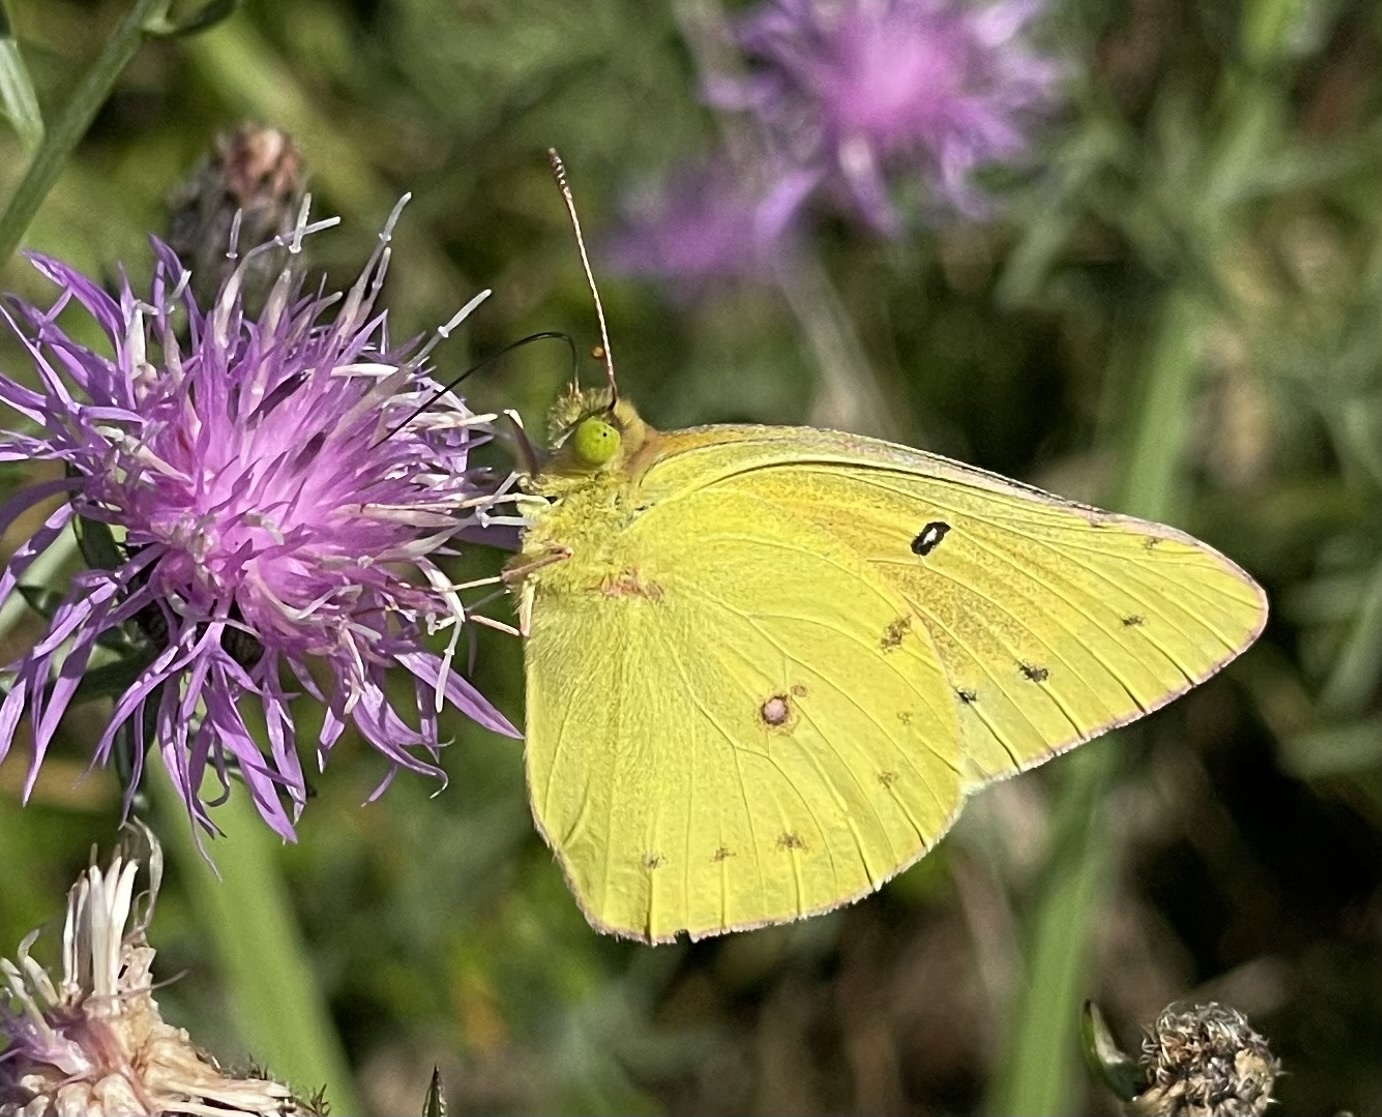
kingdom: Animalia
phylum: Arthropoda
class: Insecta
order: Lepidoptera
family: Pieridae
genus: Colias
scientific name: Colias eurytheme
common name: Alfalfa butterfly
